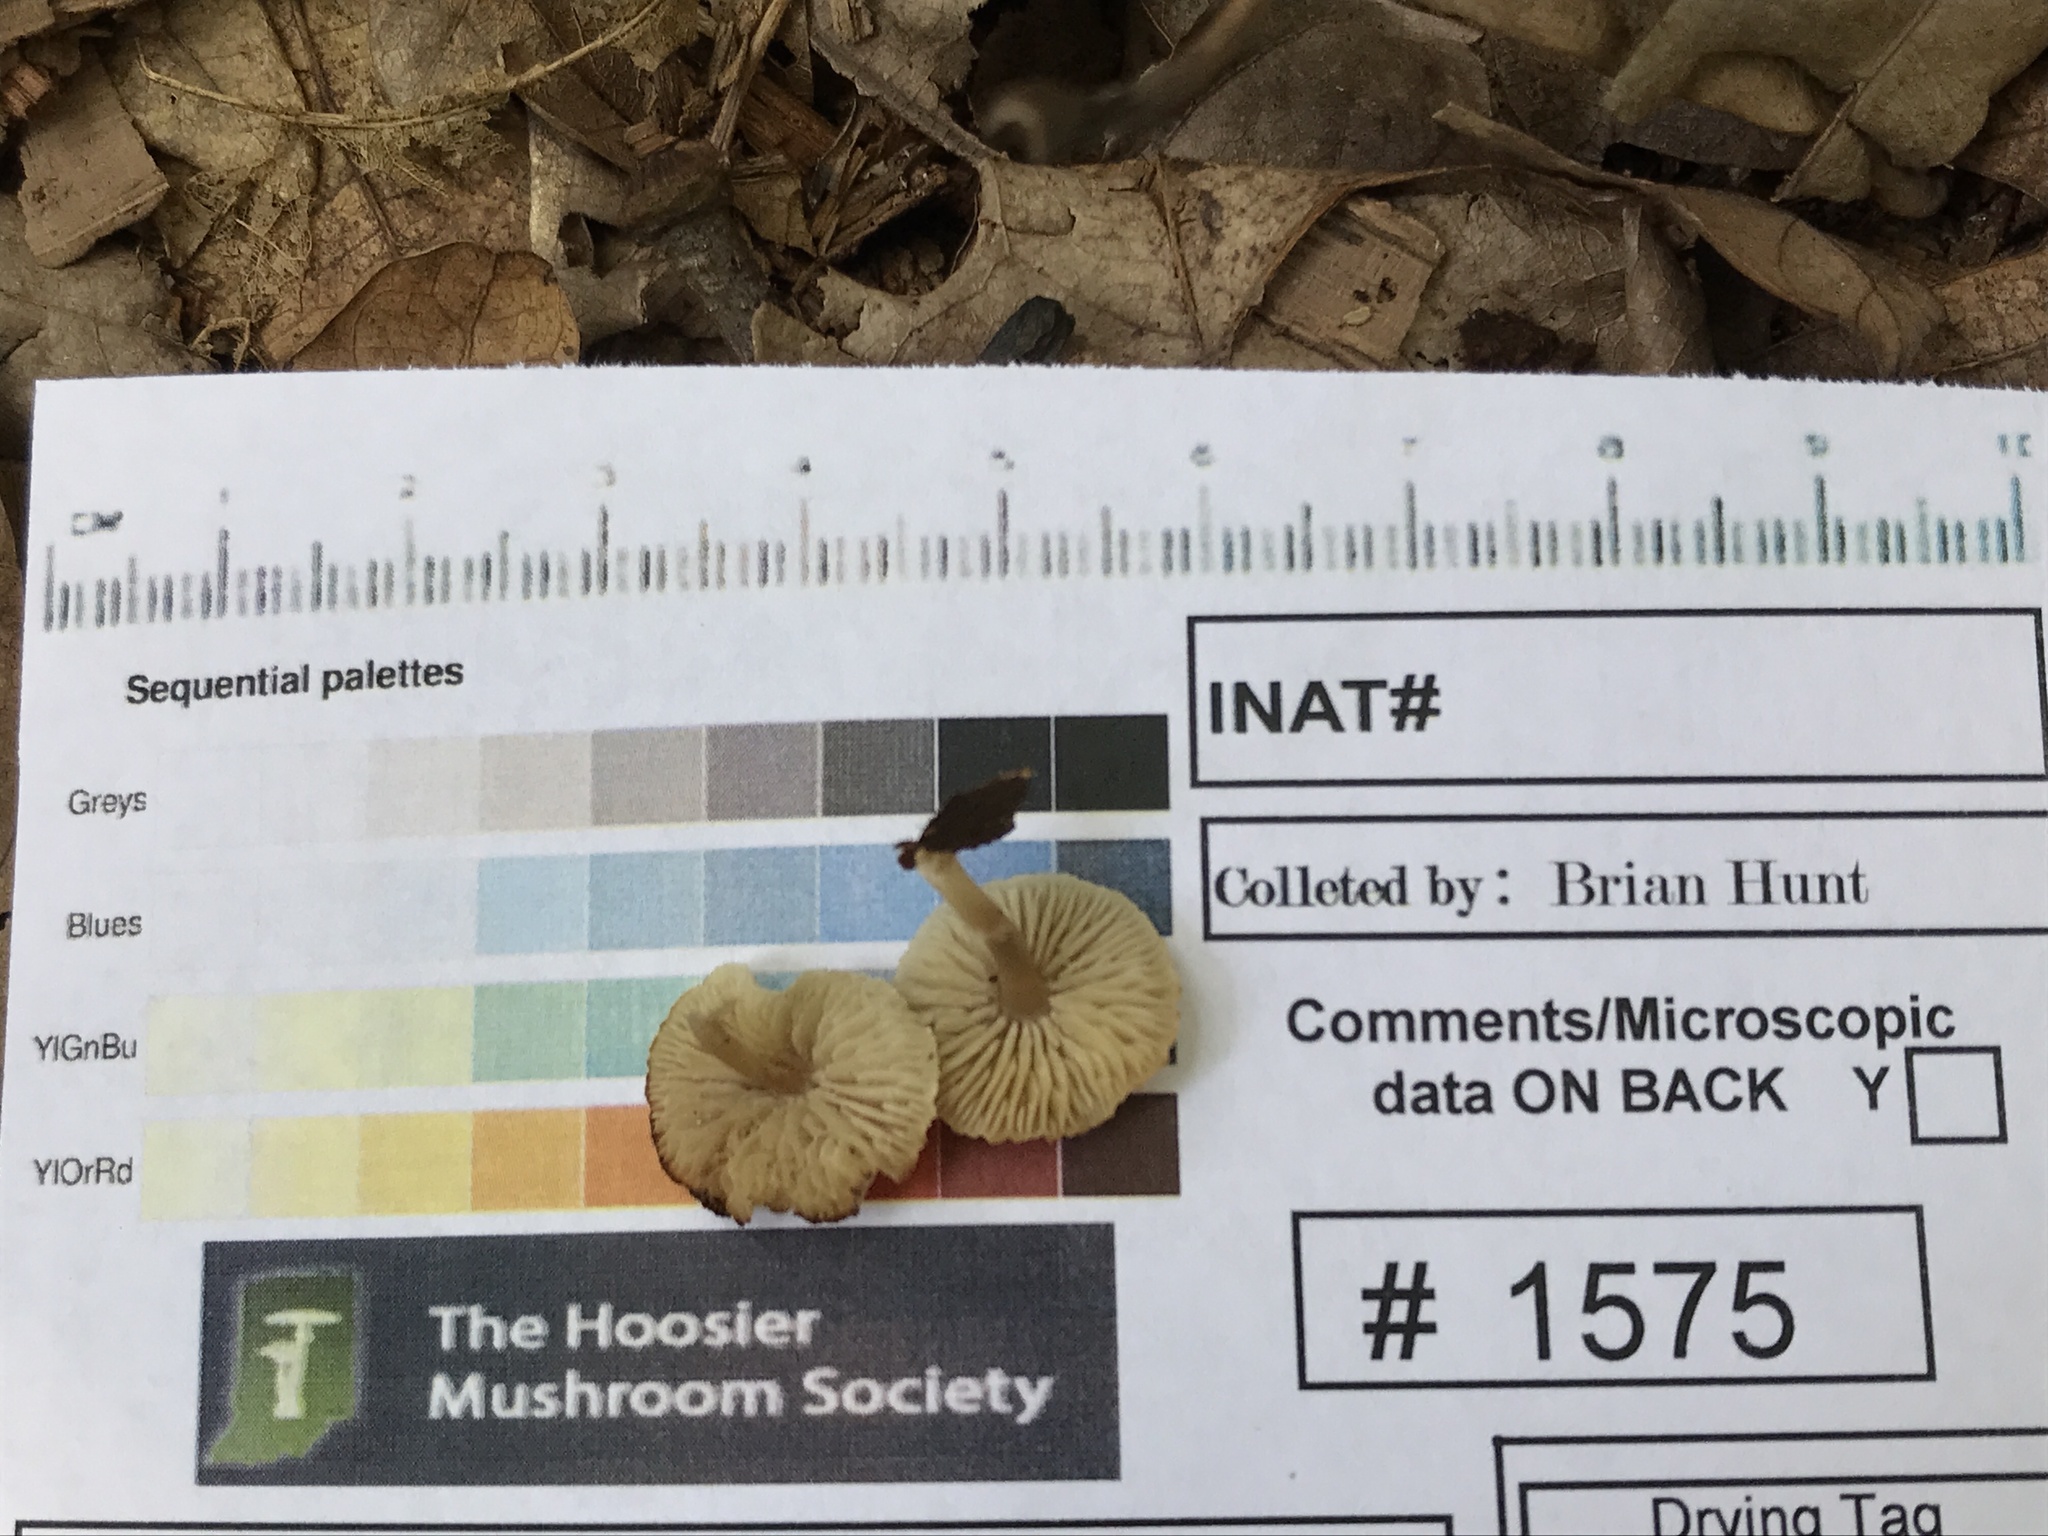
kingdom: Fungi
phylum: Basidiomycota
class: Agaricomycetes
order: Agaricales
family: Callistosporiaceae
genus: Callistosporium
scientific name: Callistosporium pseudofelleum
